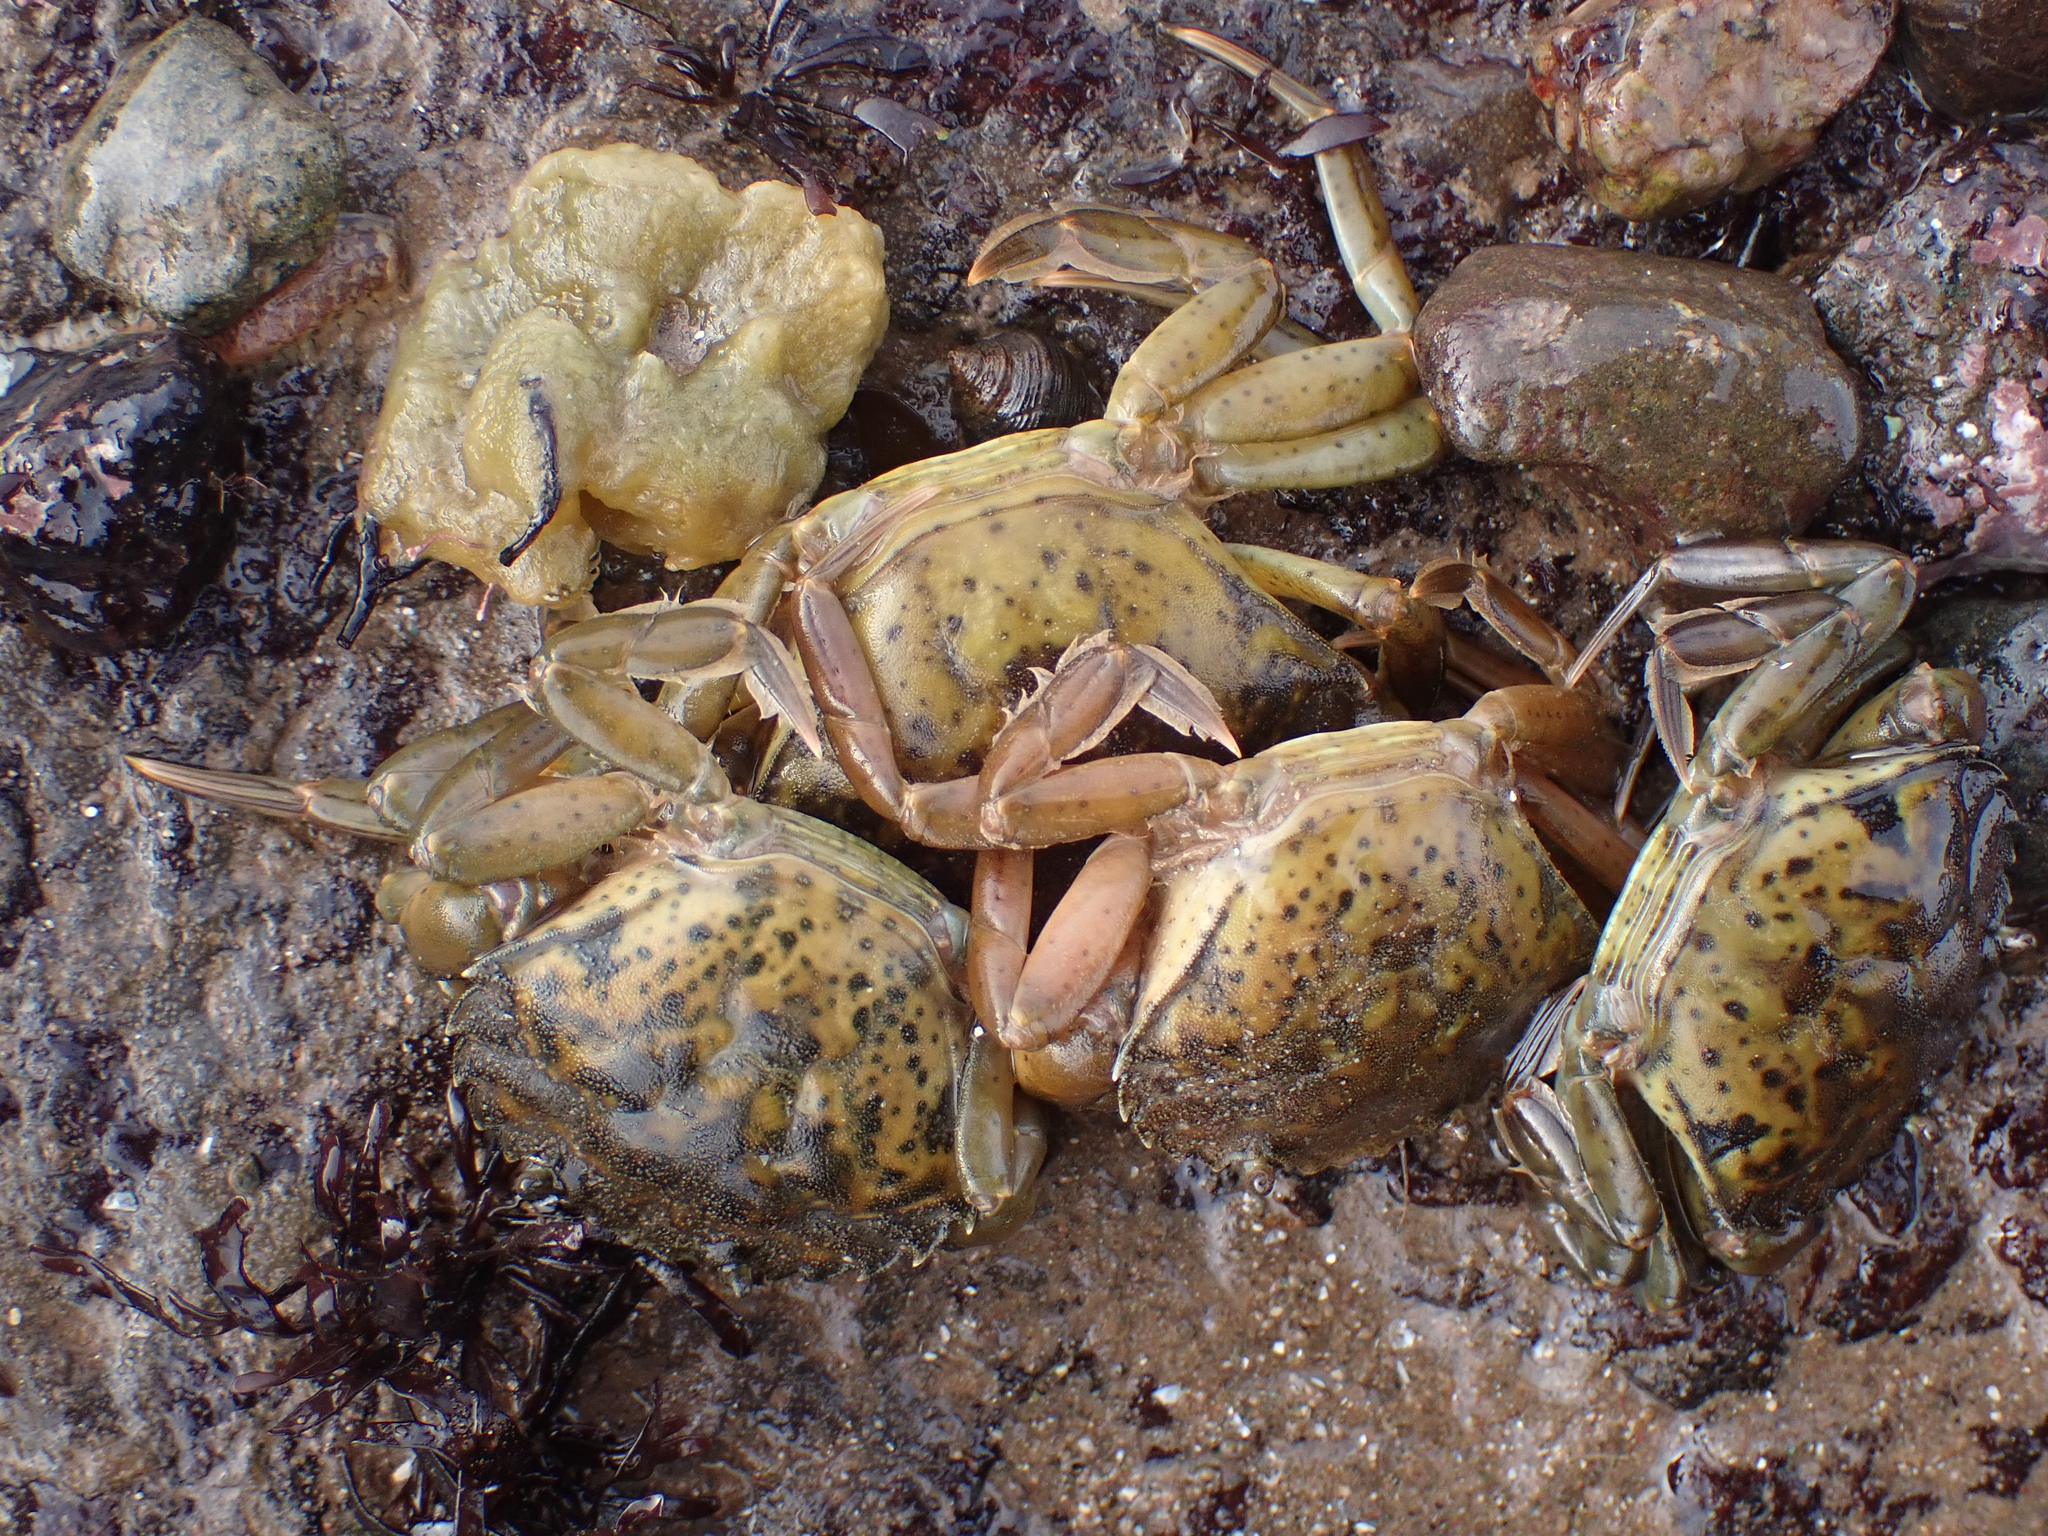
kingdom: Animalia
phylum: Arthropoda
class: Malacostraca
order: Decapoda
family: Carcinidae
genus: Carcinus
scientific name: Carcinus maenas
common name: European green crab
